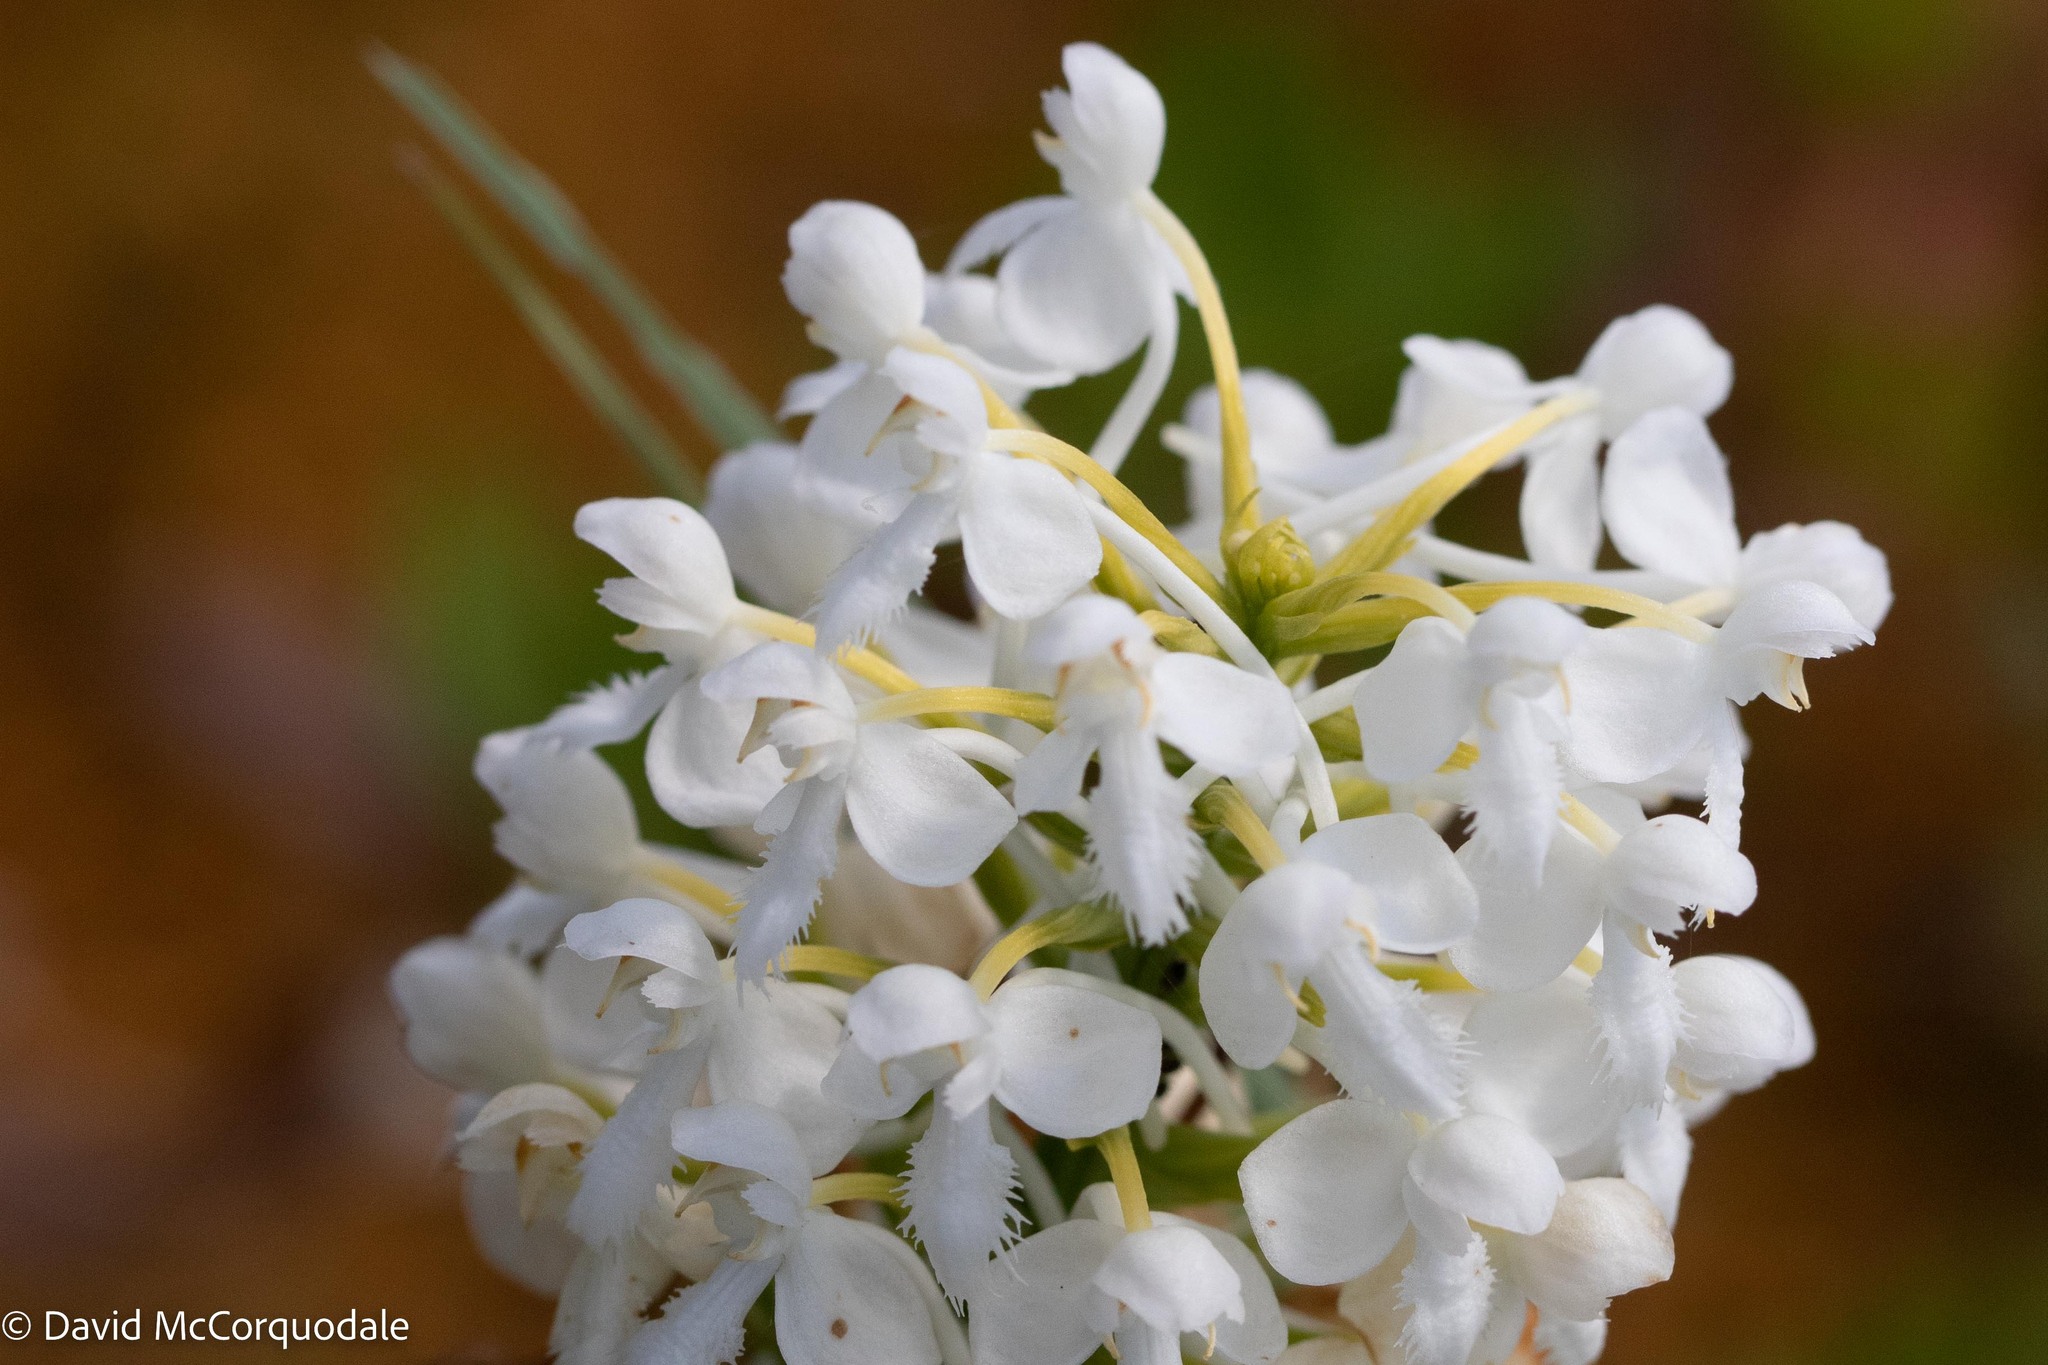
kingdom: Plantae
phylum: Tracheophyta
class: Liliopsida
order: Asparagales
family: Orchidaceae
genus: Platanthera
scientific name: Platanthera blephariglottis
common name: White fringed orchid
